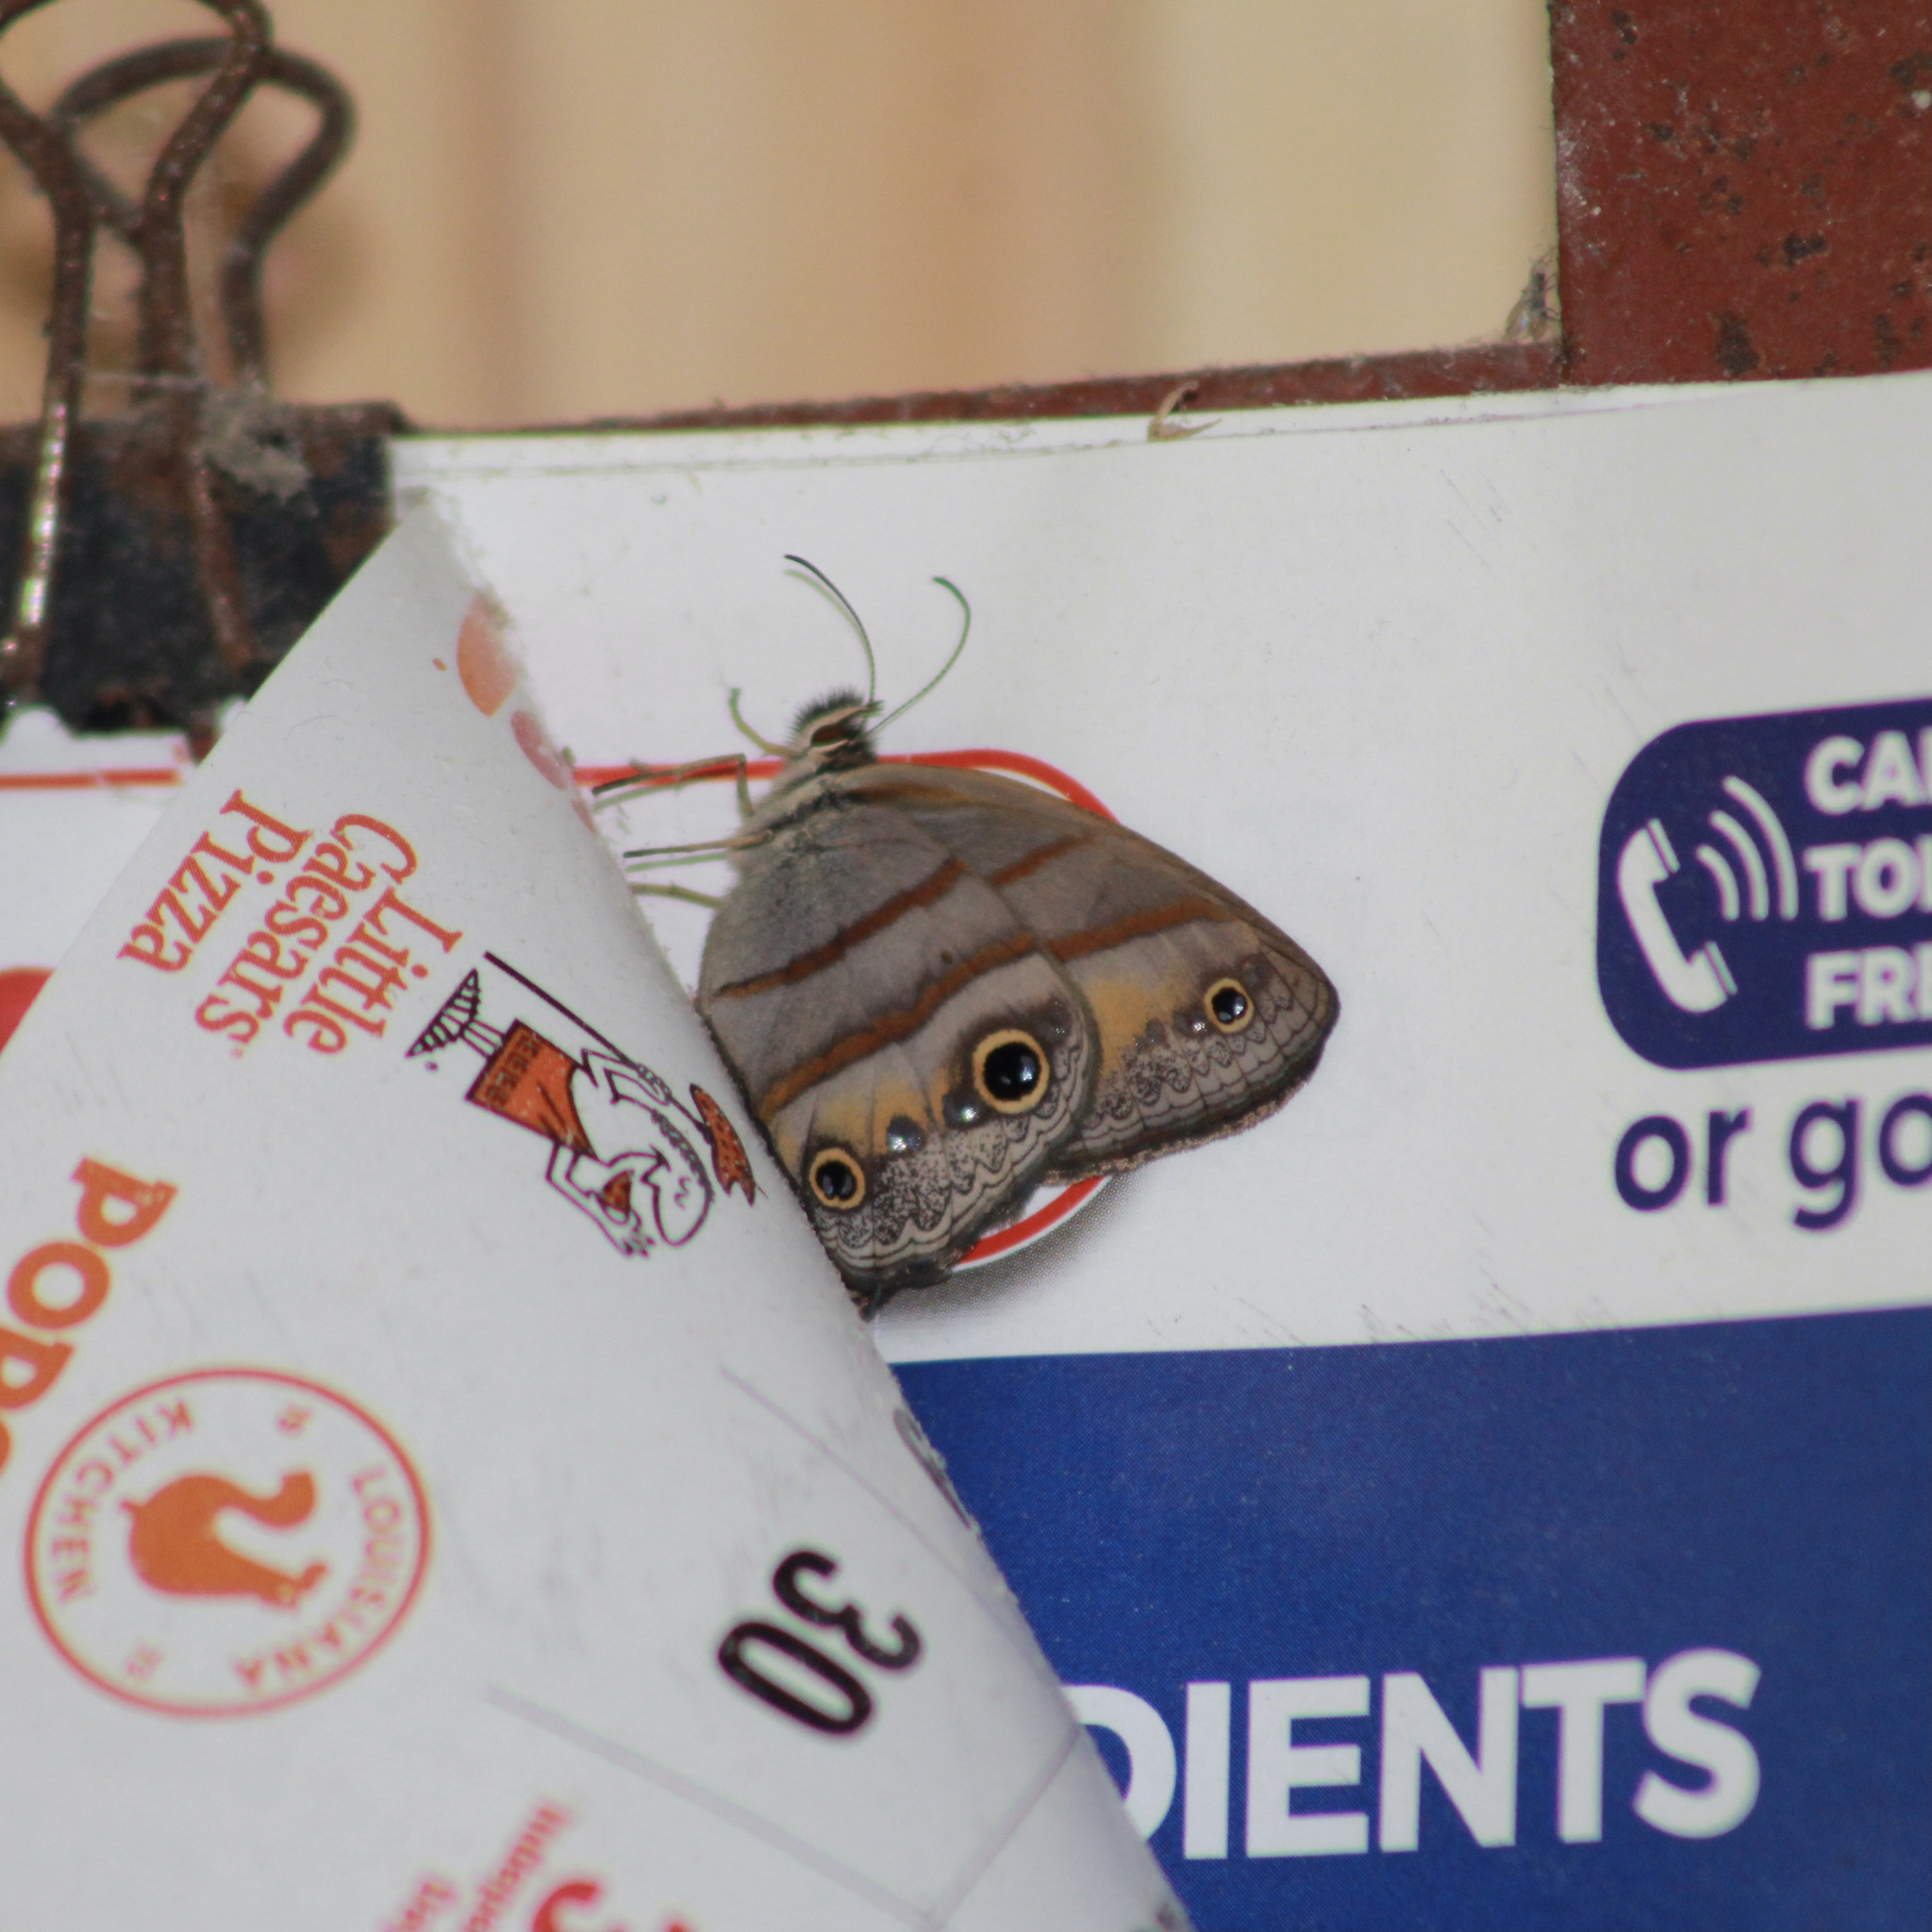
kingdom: Animalia
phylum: Arthropoda
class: Insecta
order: Lepidoptera
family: Nymphalidae
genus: Argyreuptychia
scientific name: Argyreuptychia penelope
